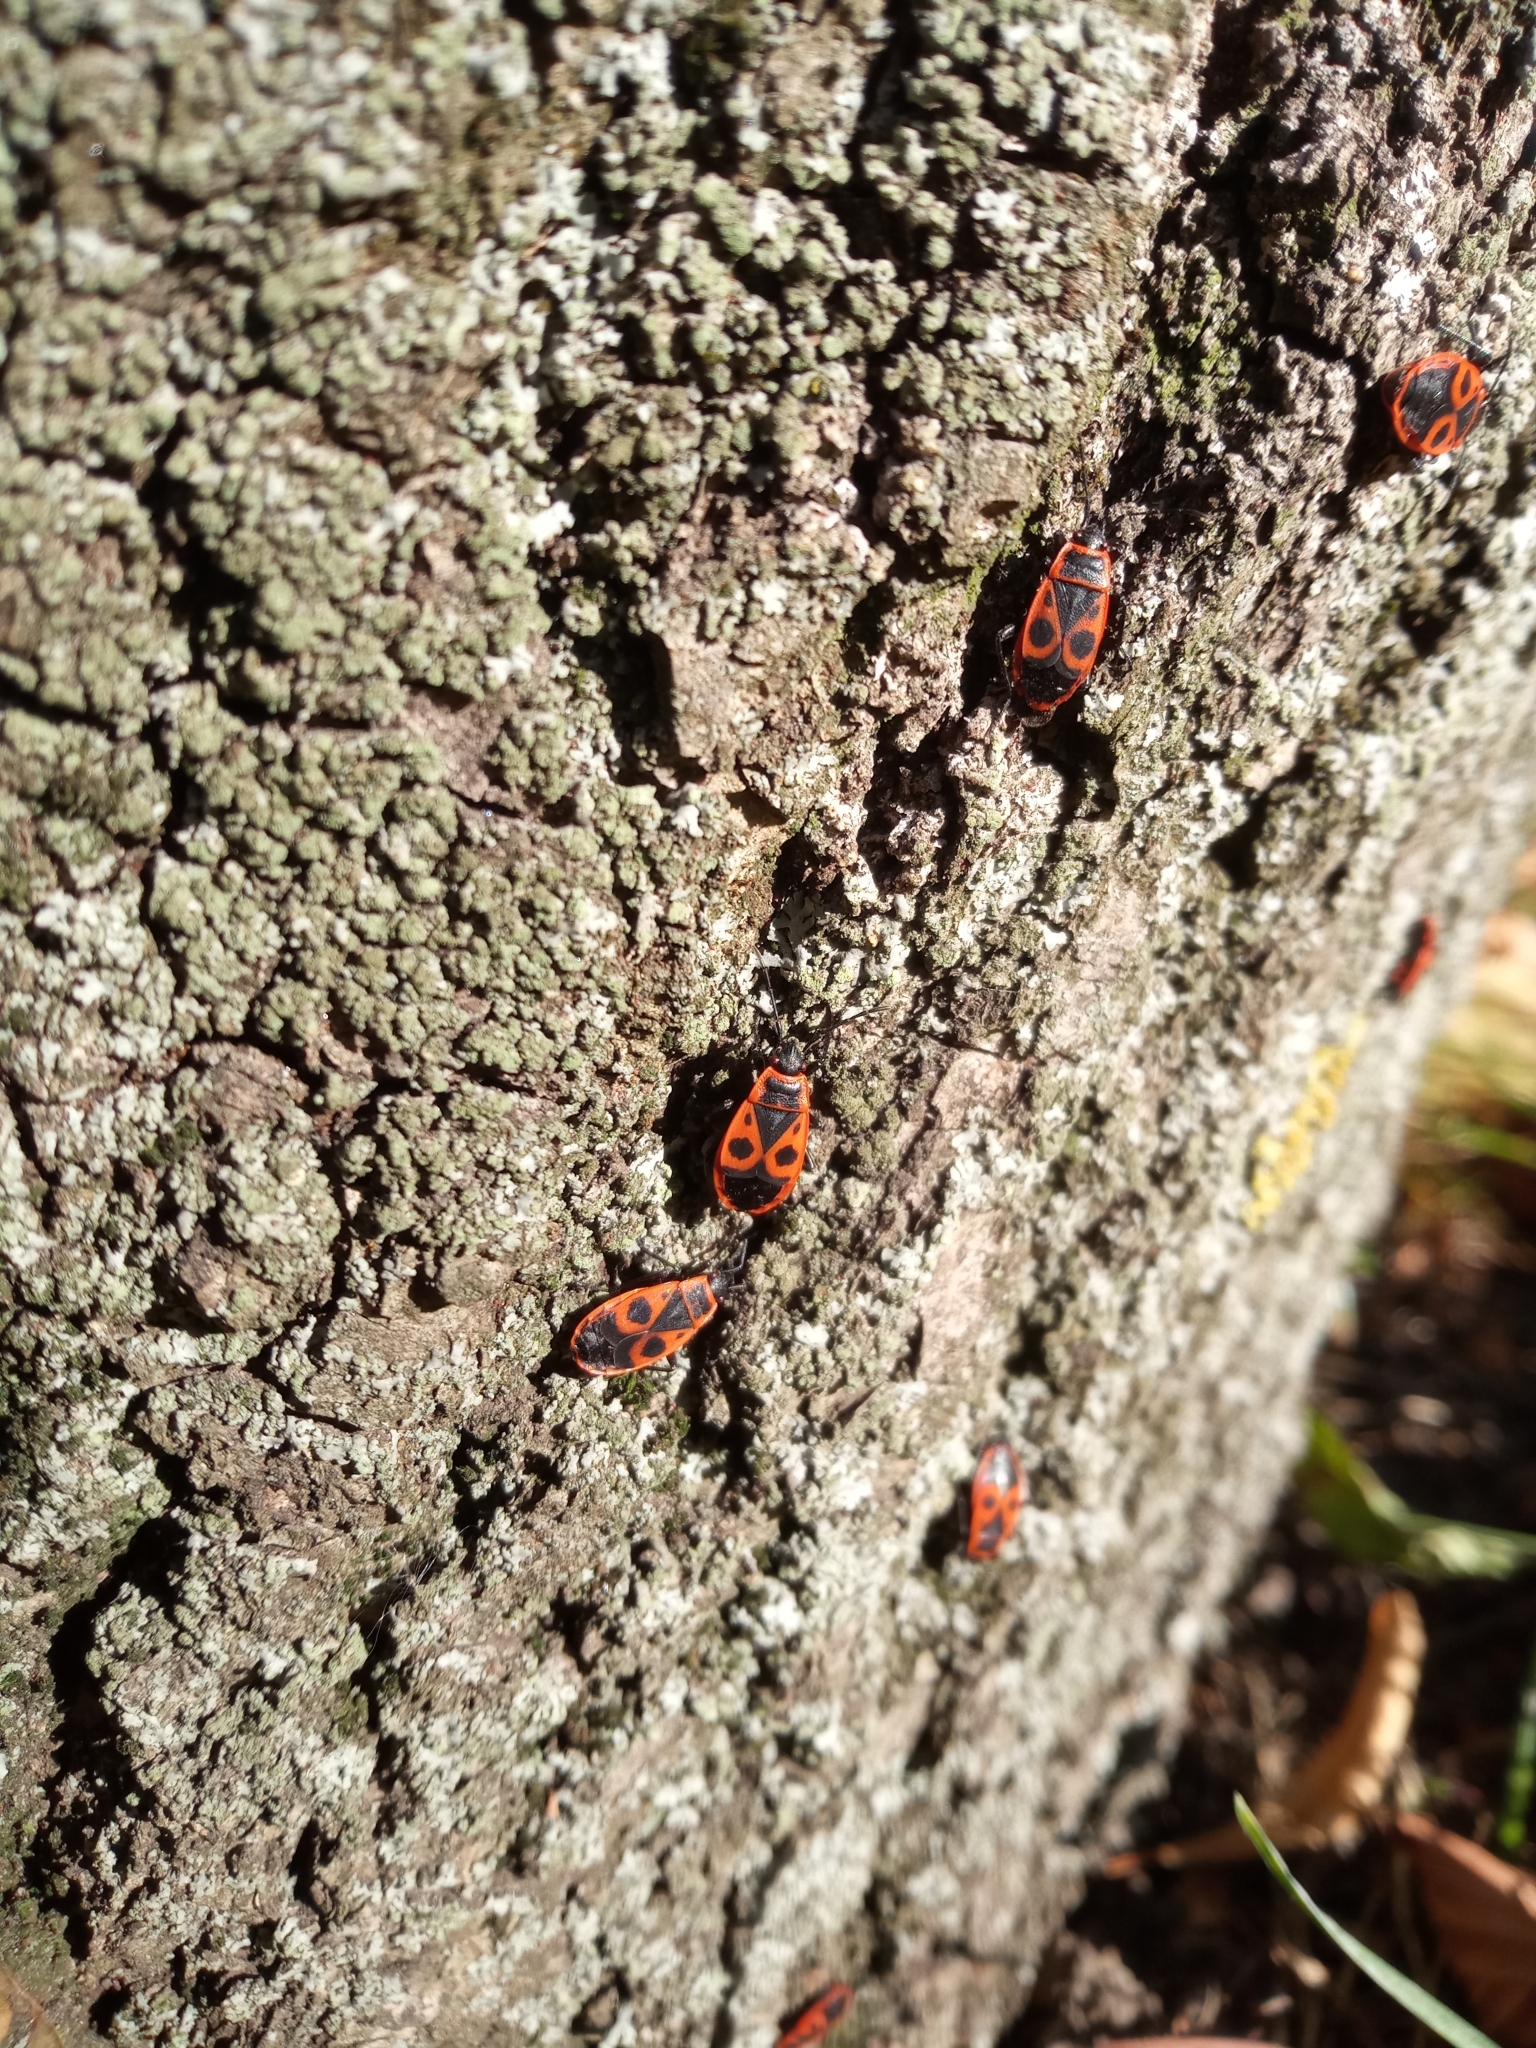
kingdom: Animalia
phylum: Arthropoda
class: Insecta
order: Hemiptera
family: Pyrrhocoridae
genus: Pyrrhocoris
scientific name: Pyrrhocoris apterus
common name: Firebug
